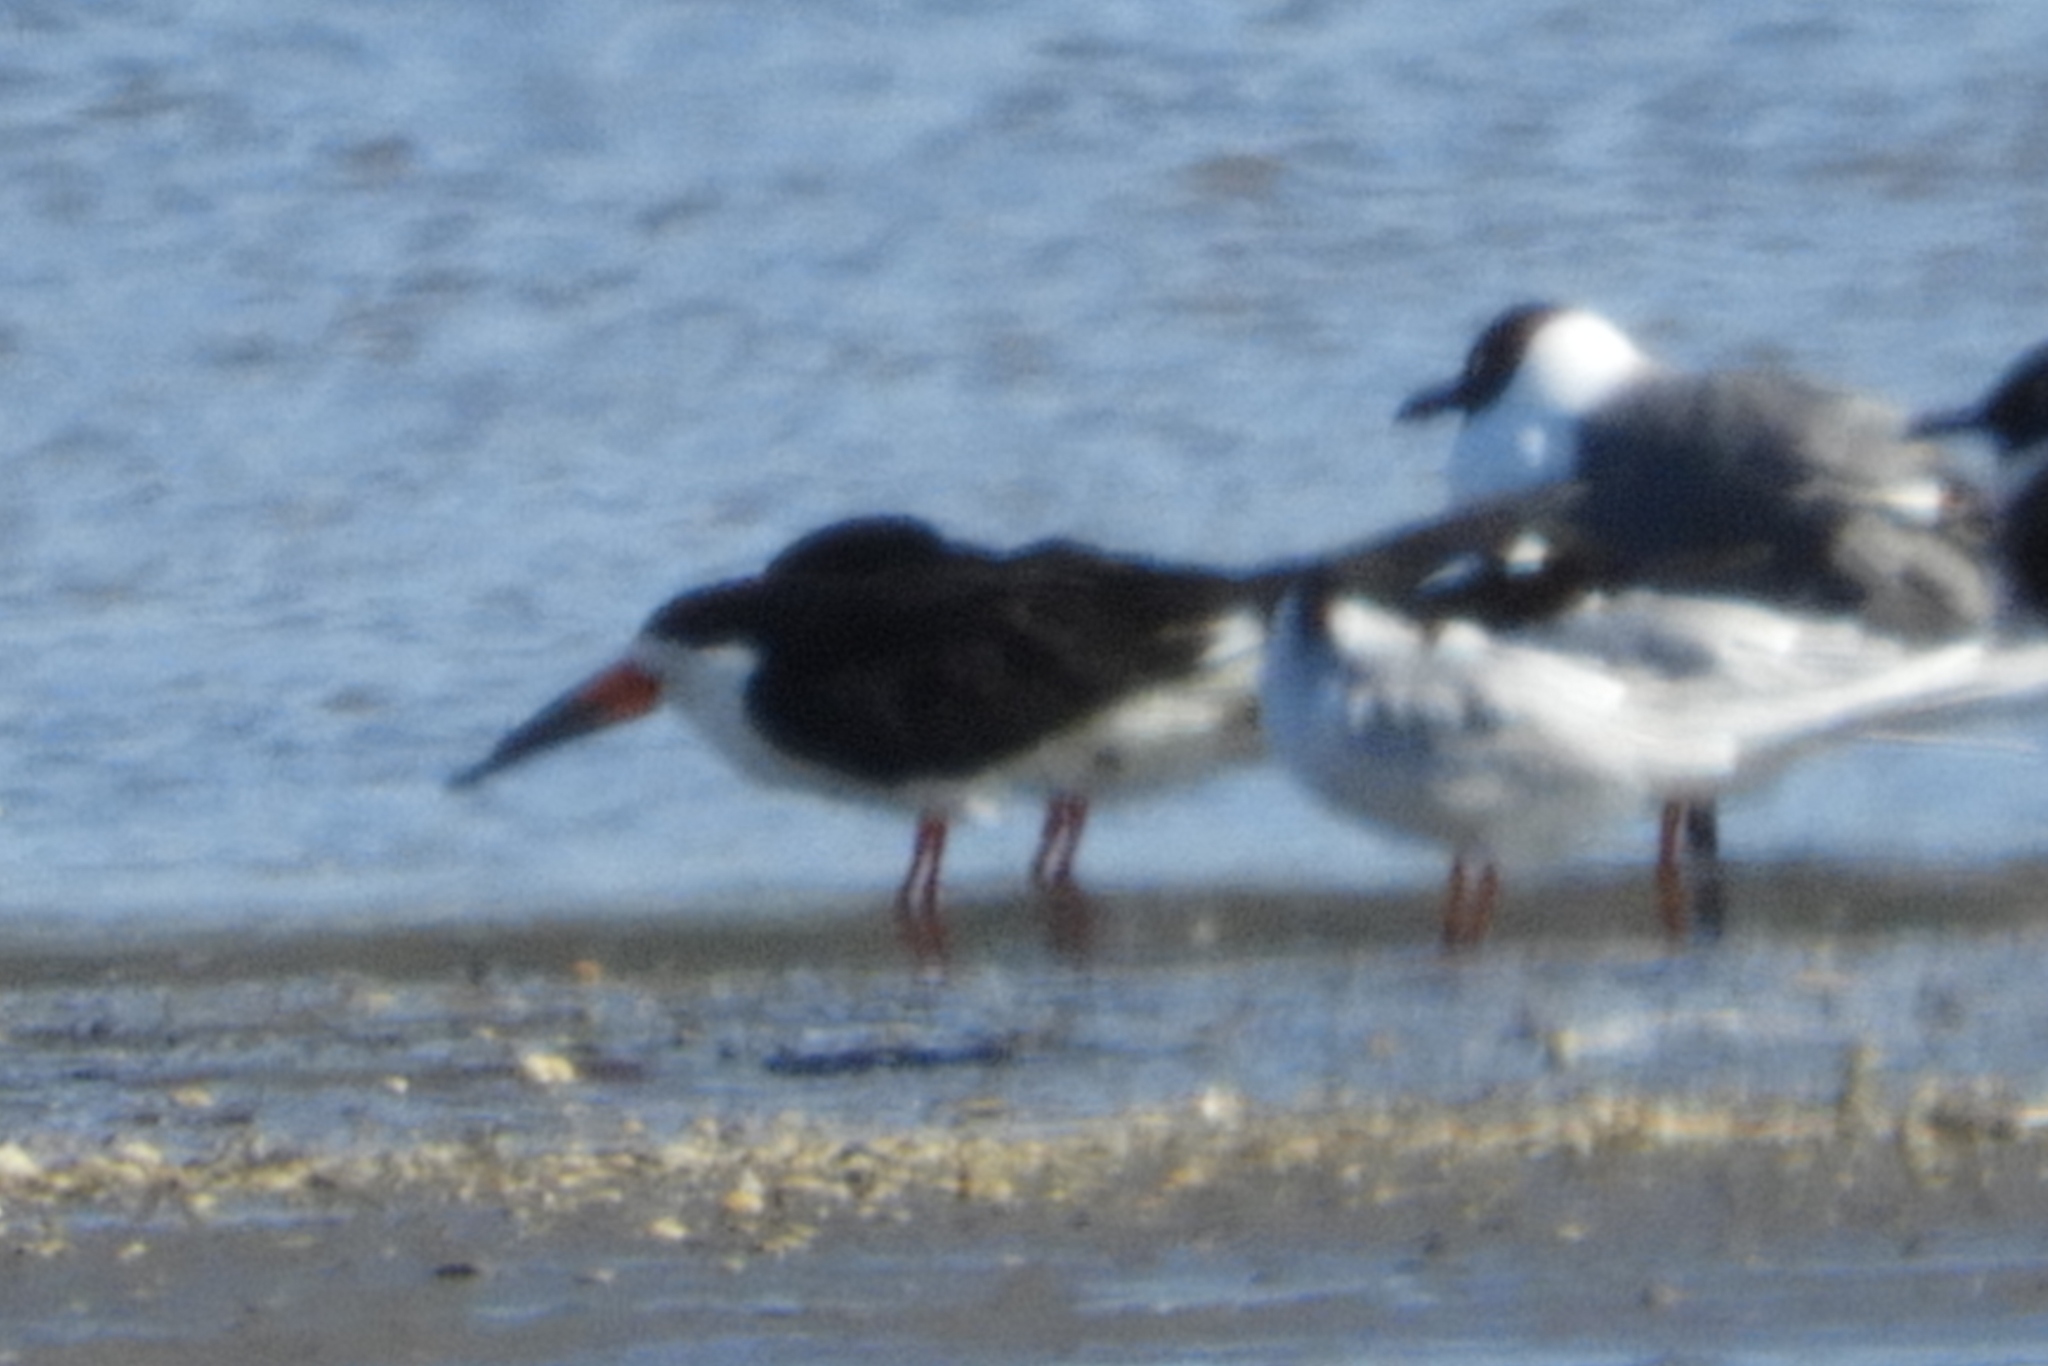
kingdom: Animalia
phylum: Chordata
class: Aves
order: Charadriiformes
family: Laridae
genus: Rynchops
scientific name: Rynchops niger
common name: Black skimmer
